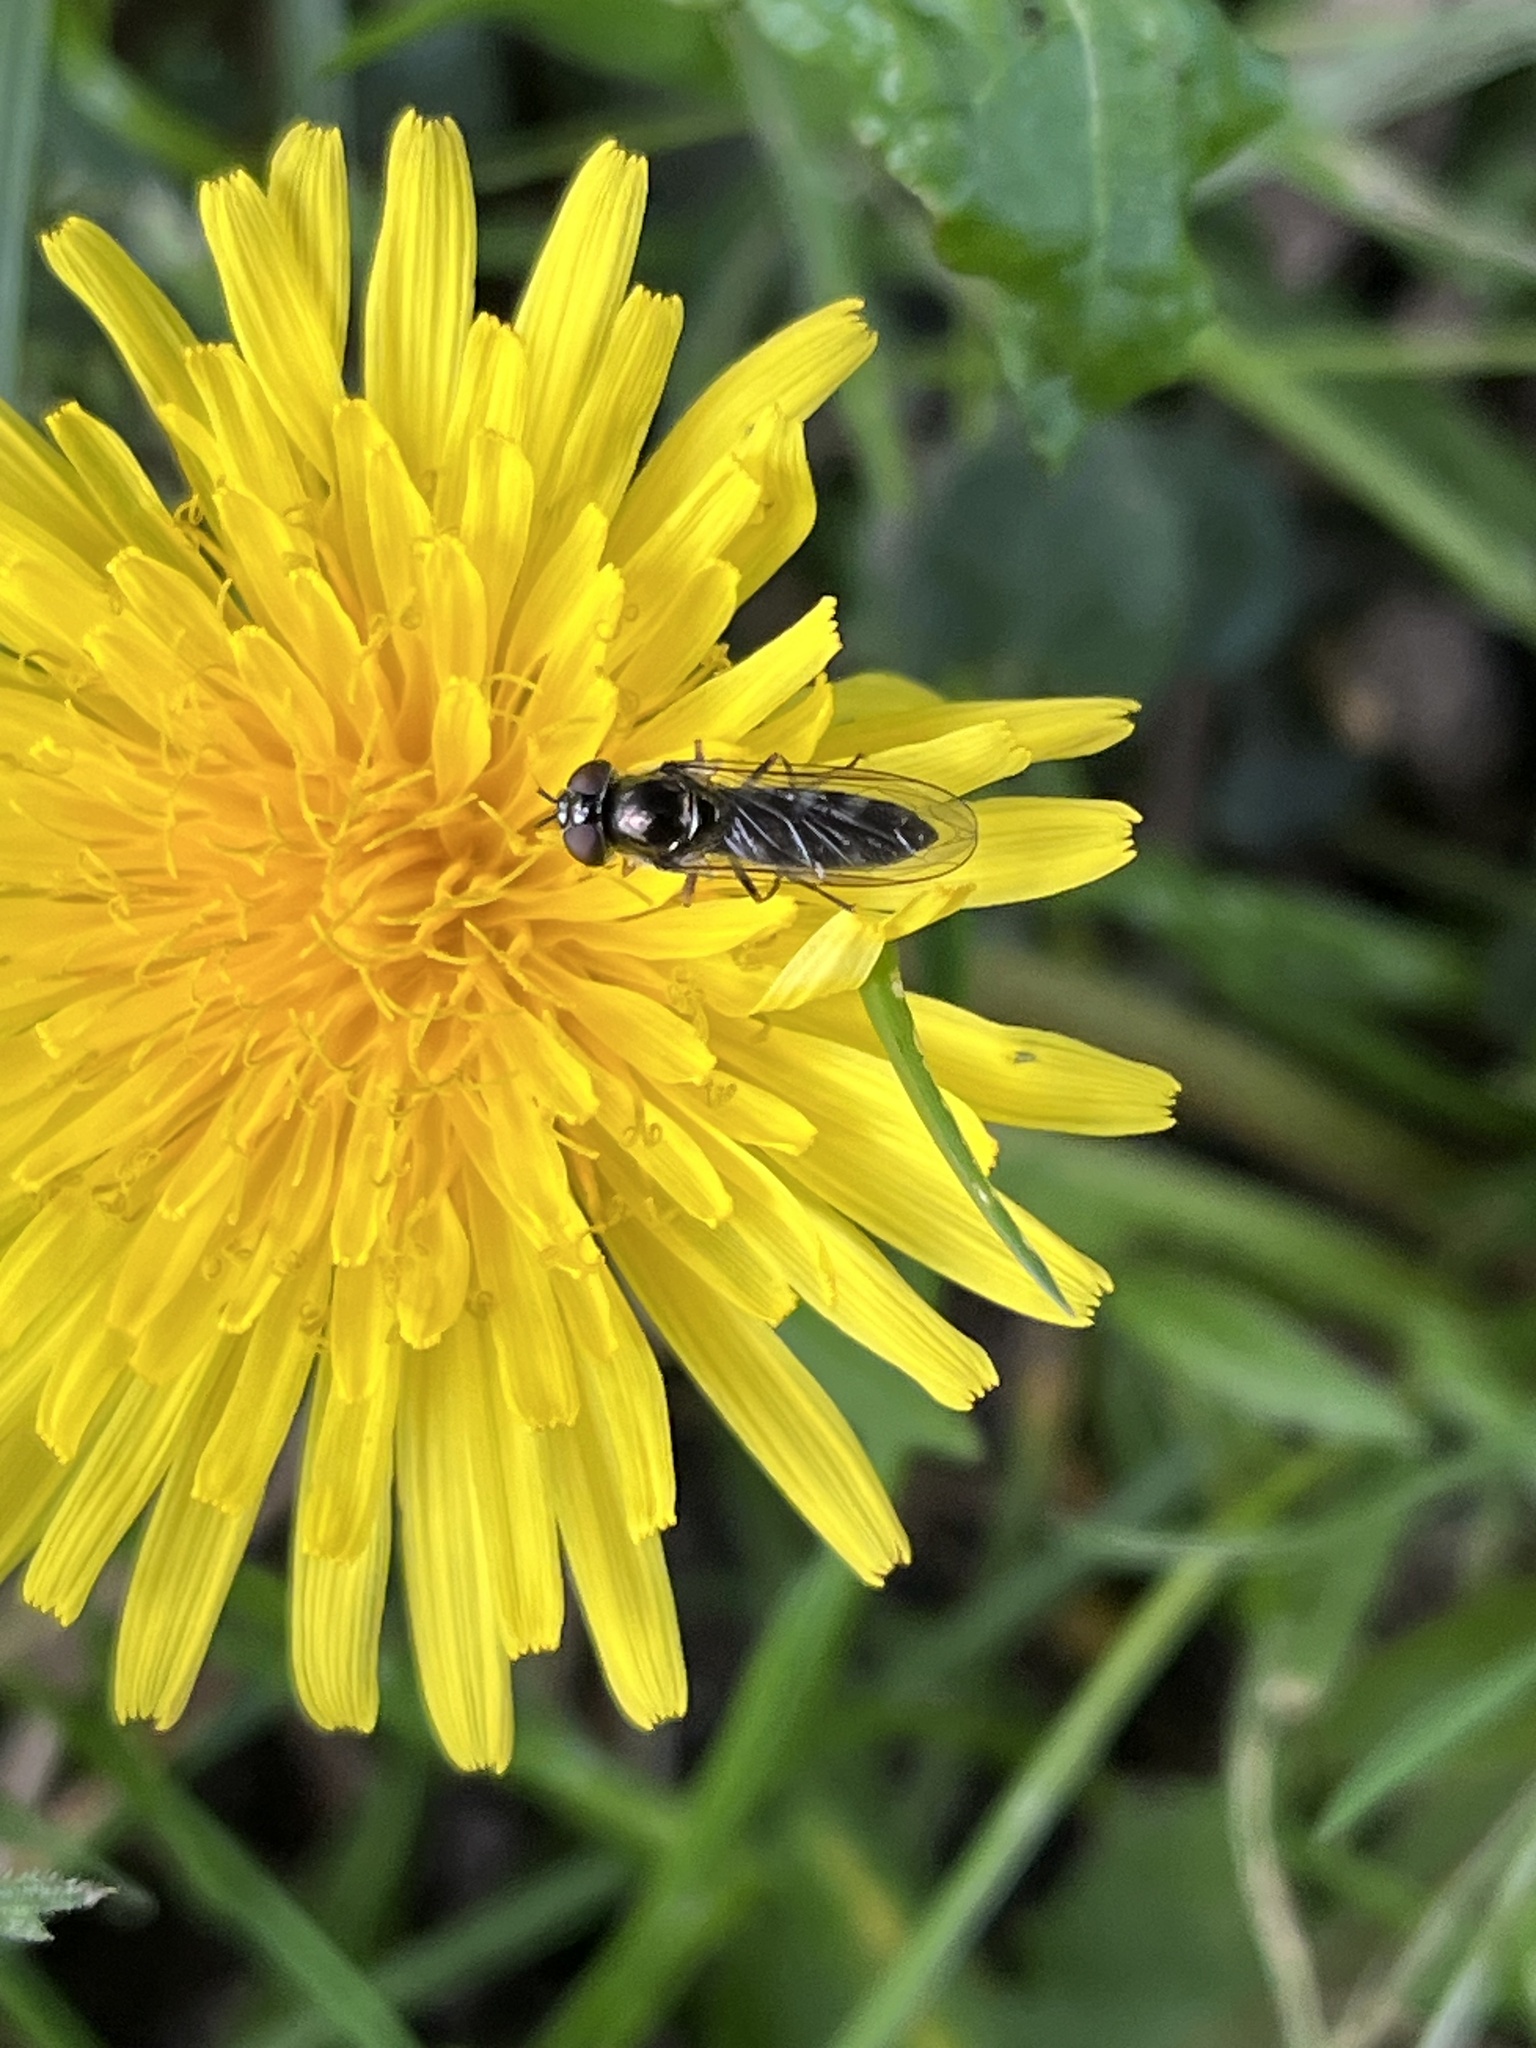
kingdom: Animalia
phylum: Arthropoda
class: Insecta
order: Diptera
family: Syrphidae
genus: Platycheirus
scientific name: Platycheirus albimanus
